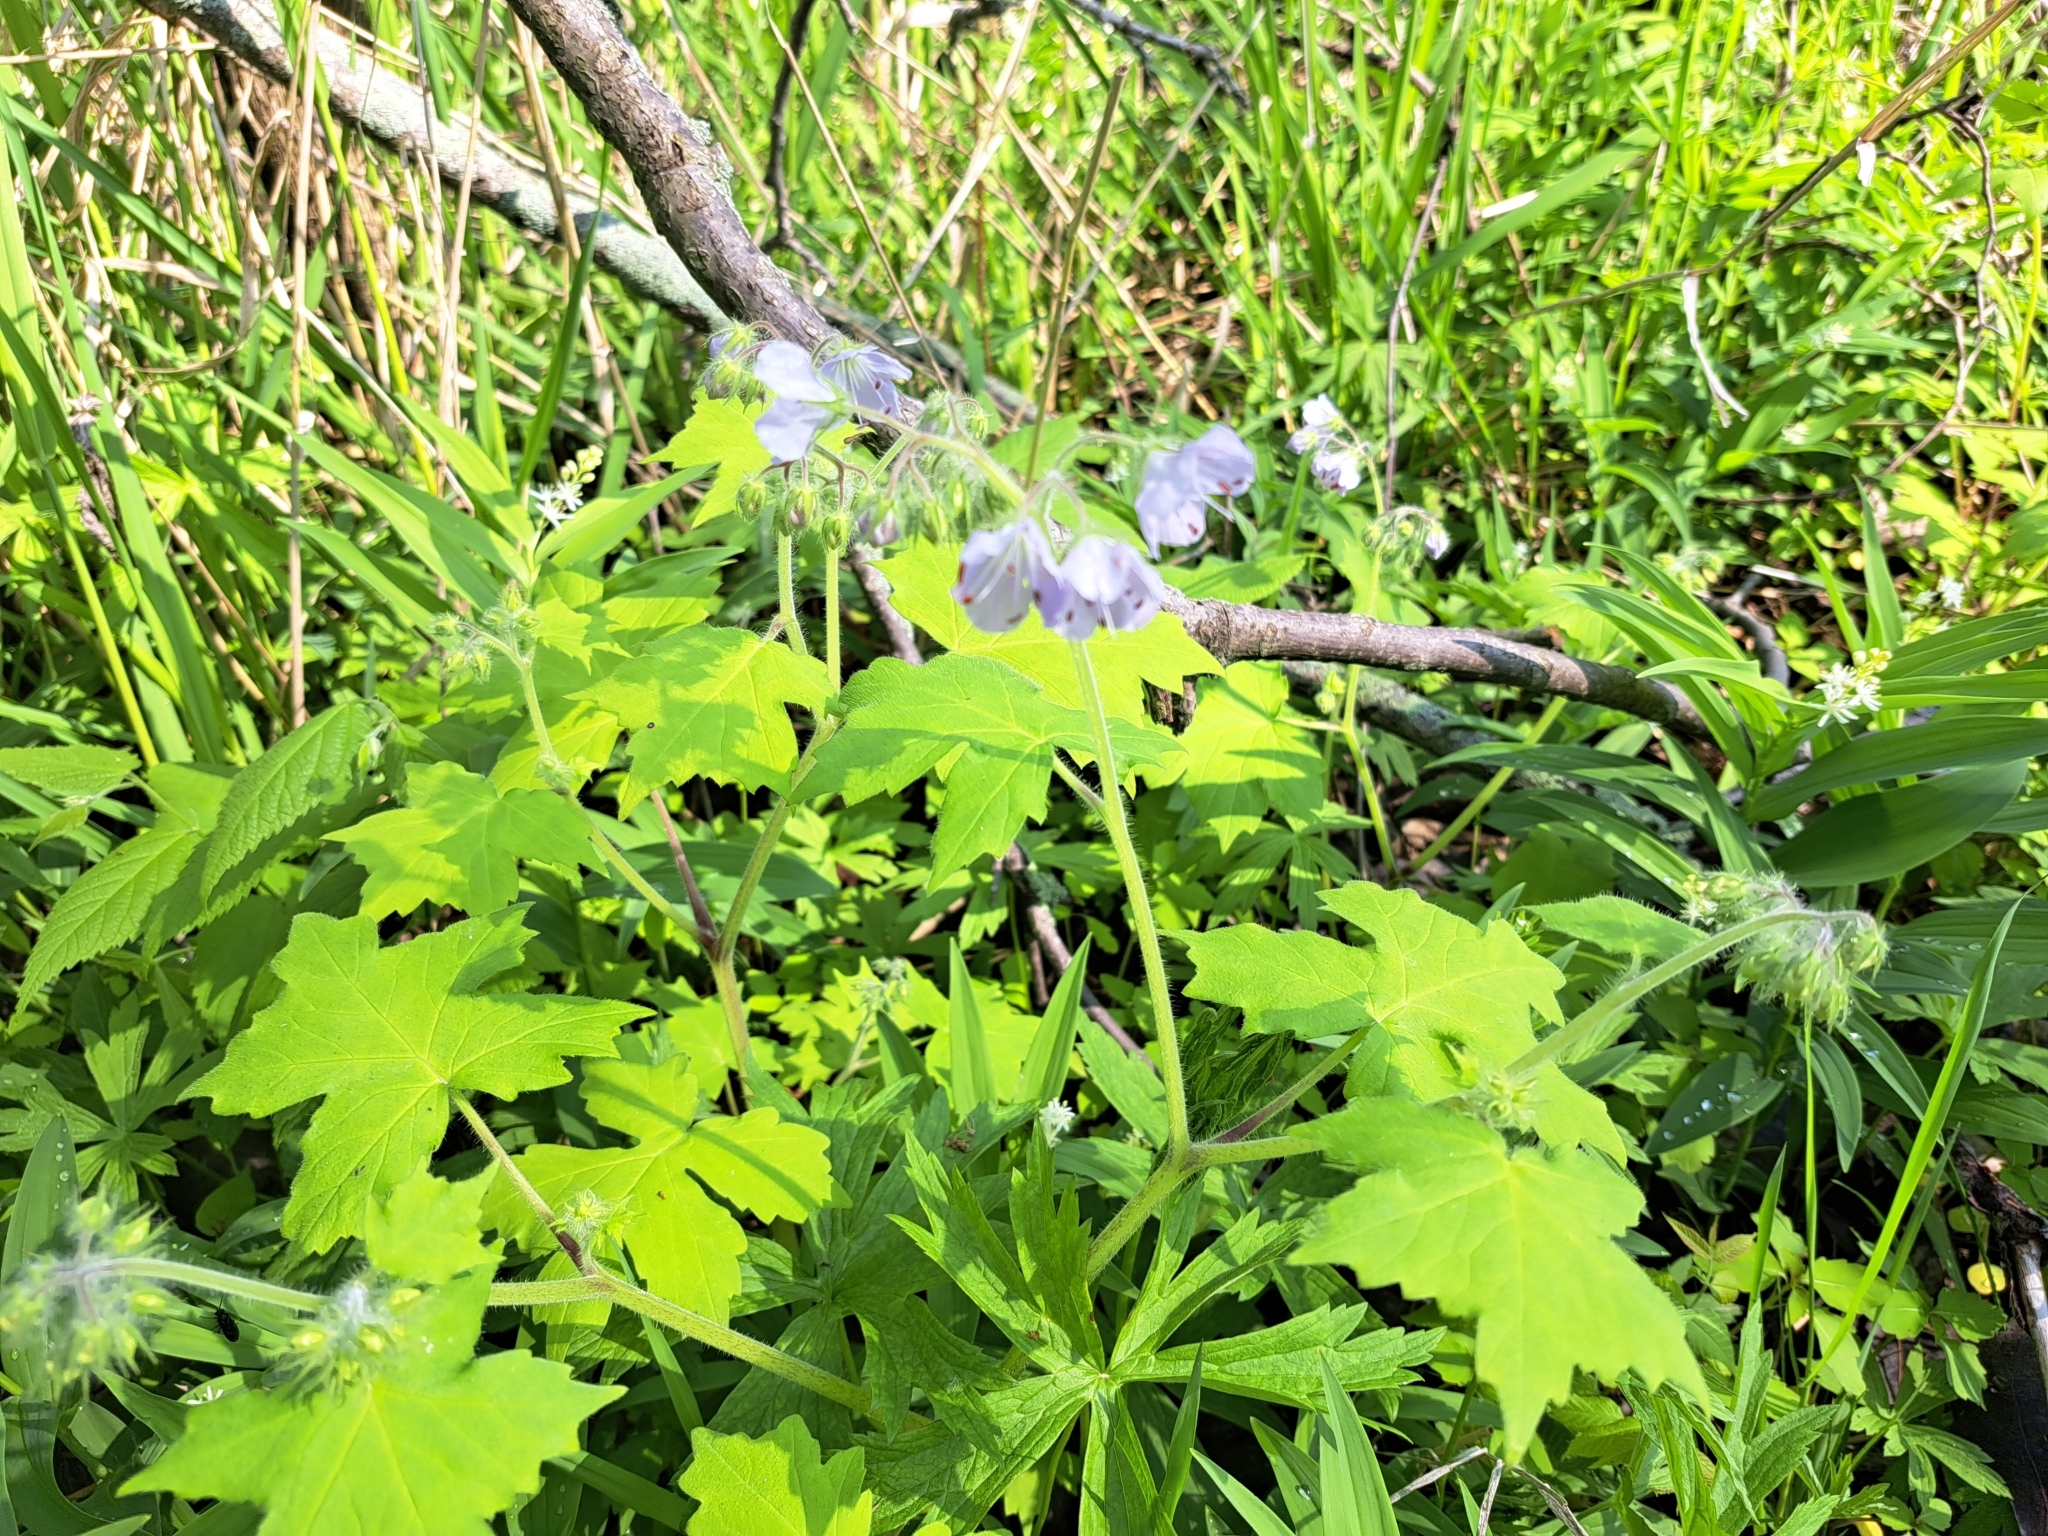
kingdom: Plantae
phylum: Tracheophyta
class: Magnoliopsida
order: Boraginales
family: Hydrophyllaceae
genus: Hydrophyllum
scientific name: Hydrophyllum appendiculatum
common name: Appendaged waterleaf
